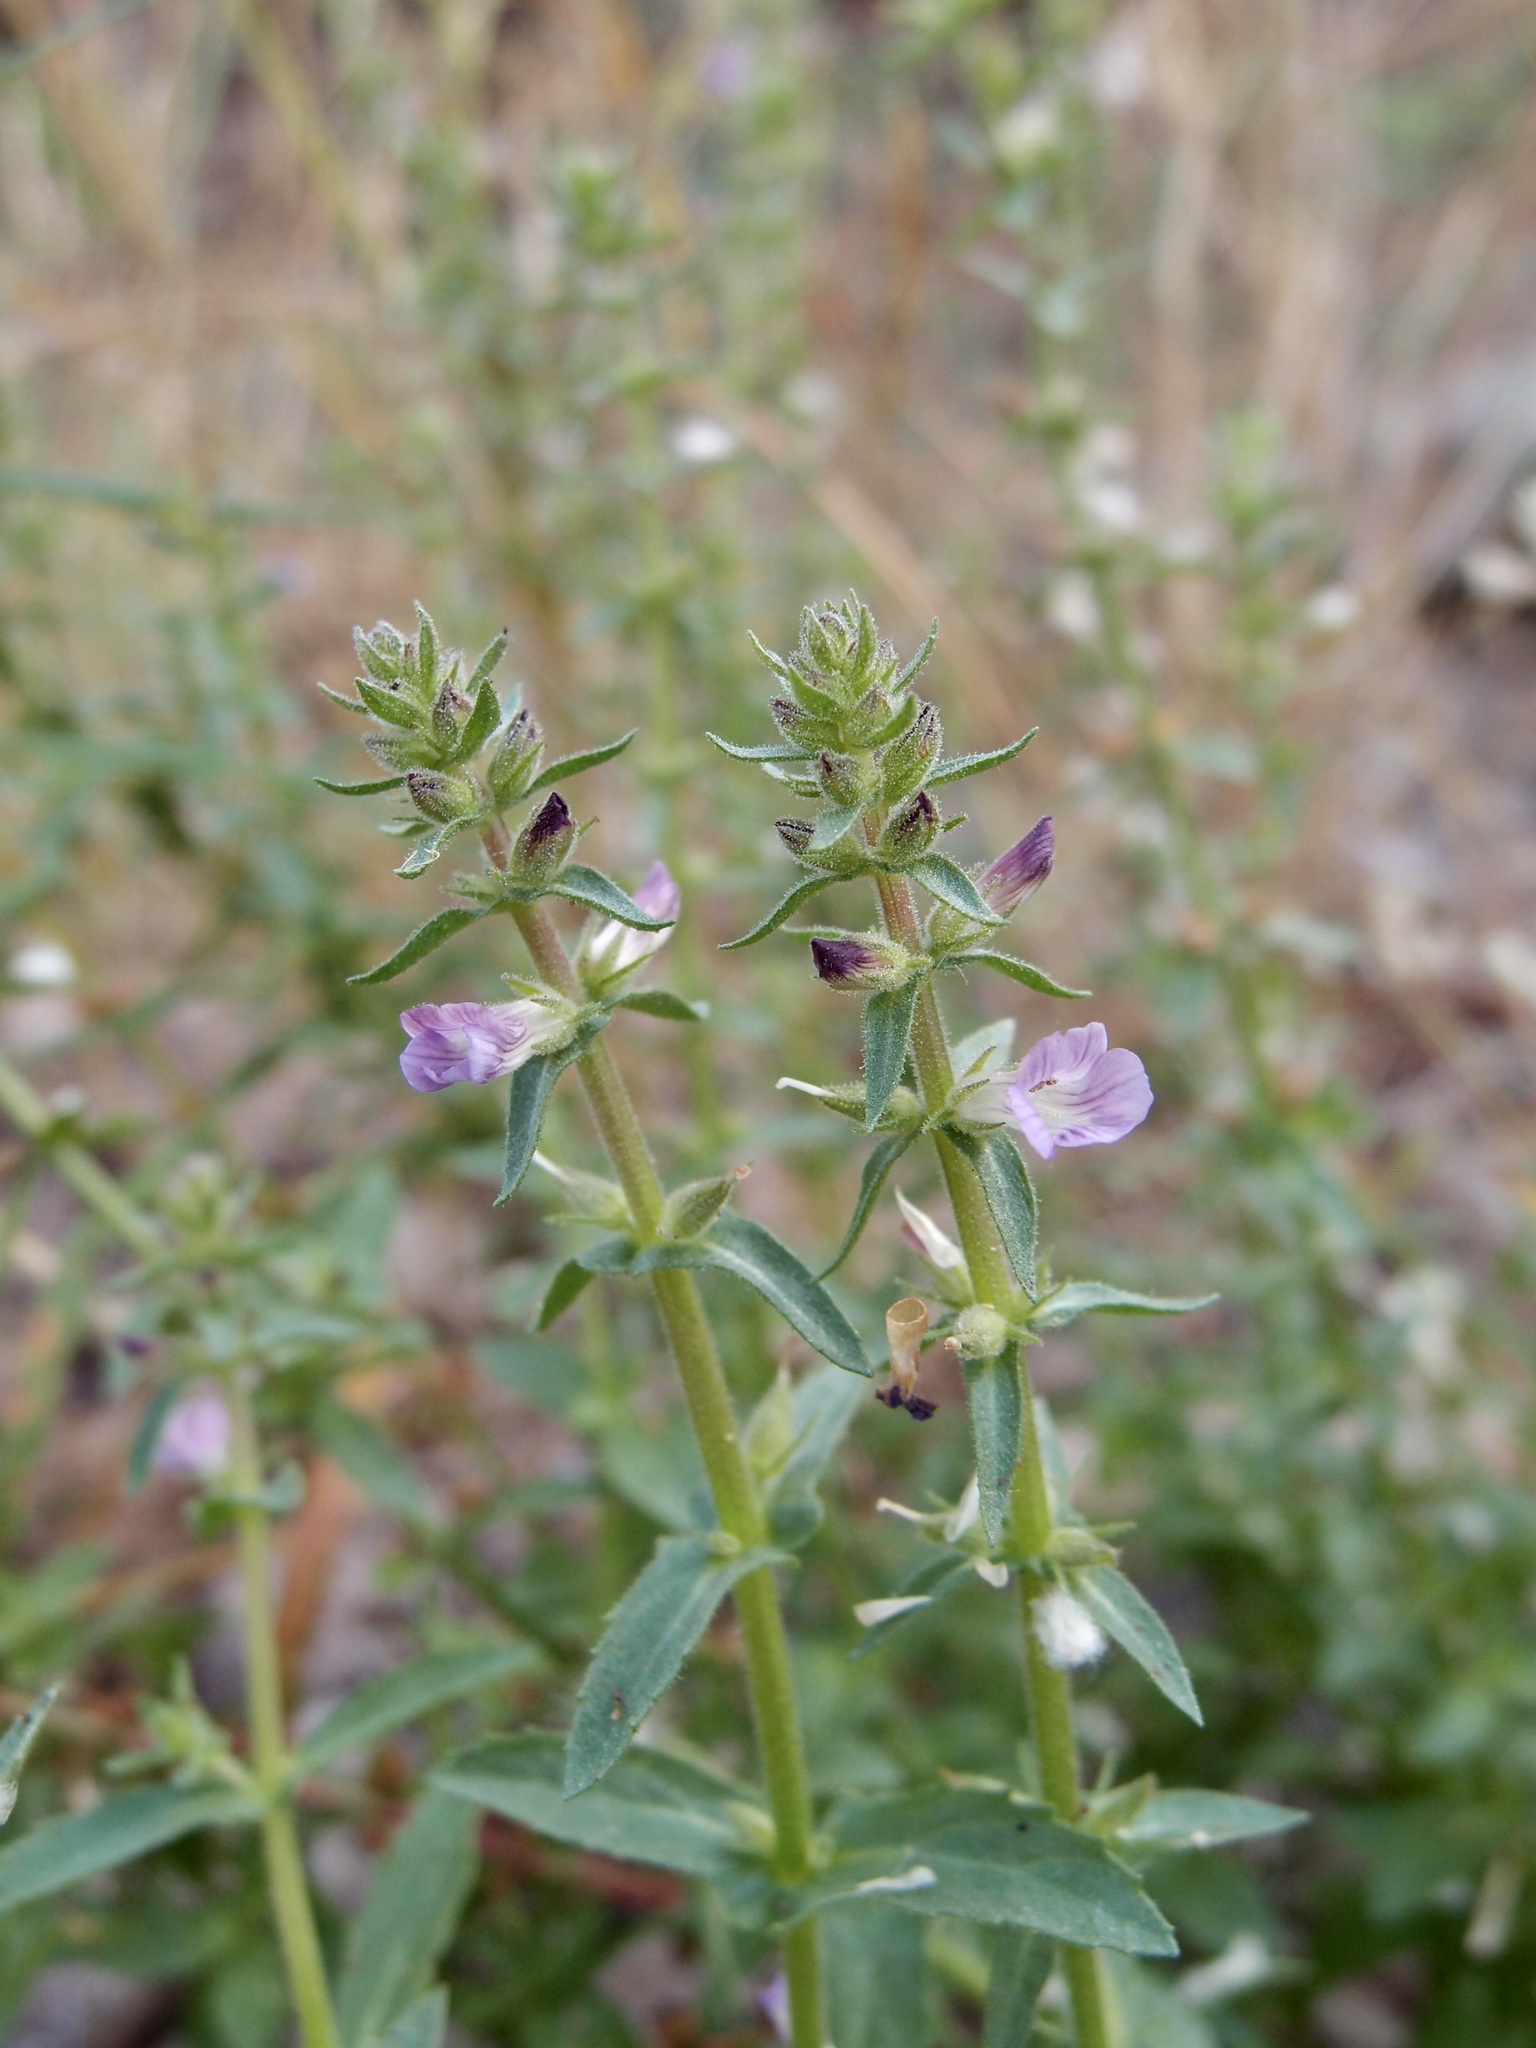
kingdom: Plantae
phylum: Tracheophyta
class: Magnoliopsida
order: Lamiales
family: Plantaginaceae
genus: Stemodia
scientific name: Stemodia durantifolia
